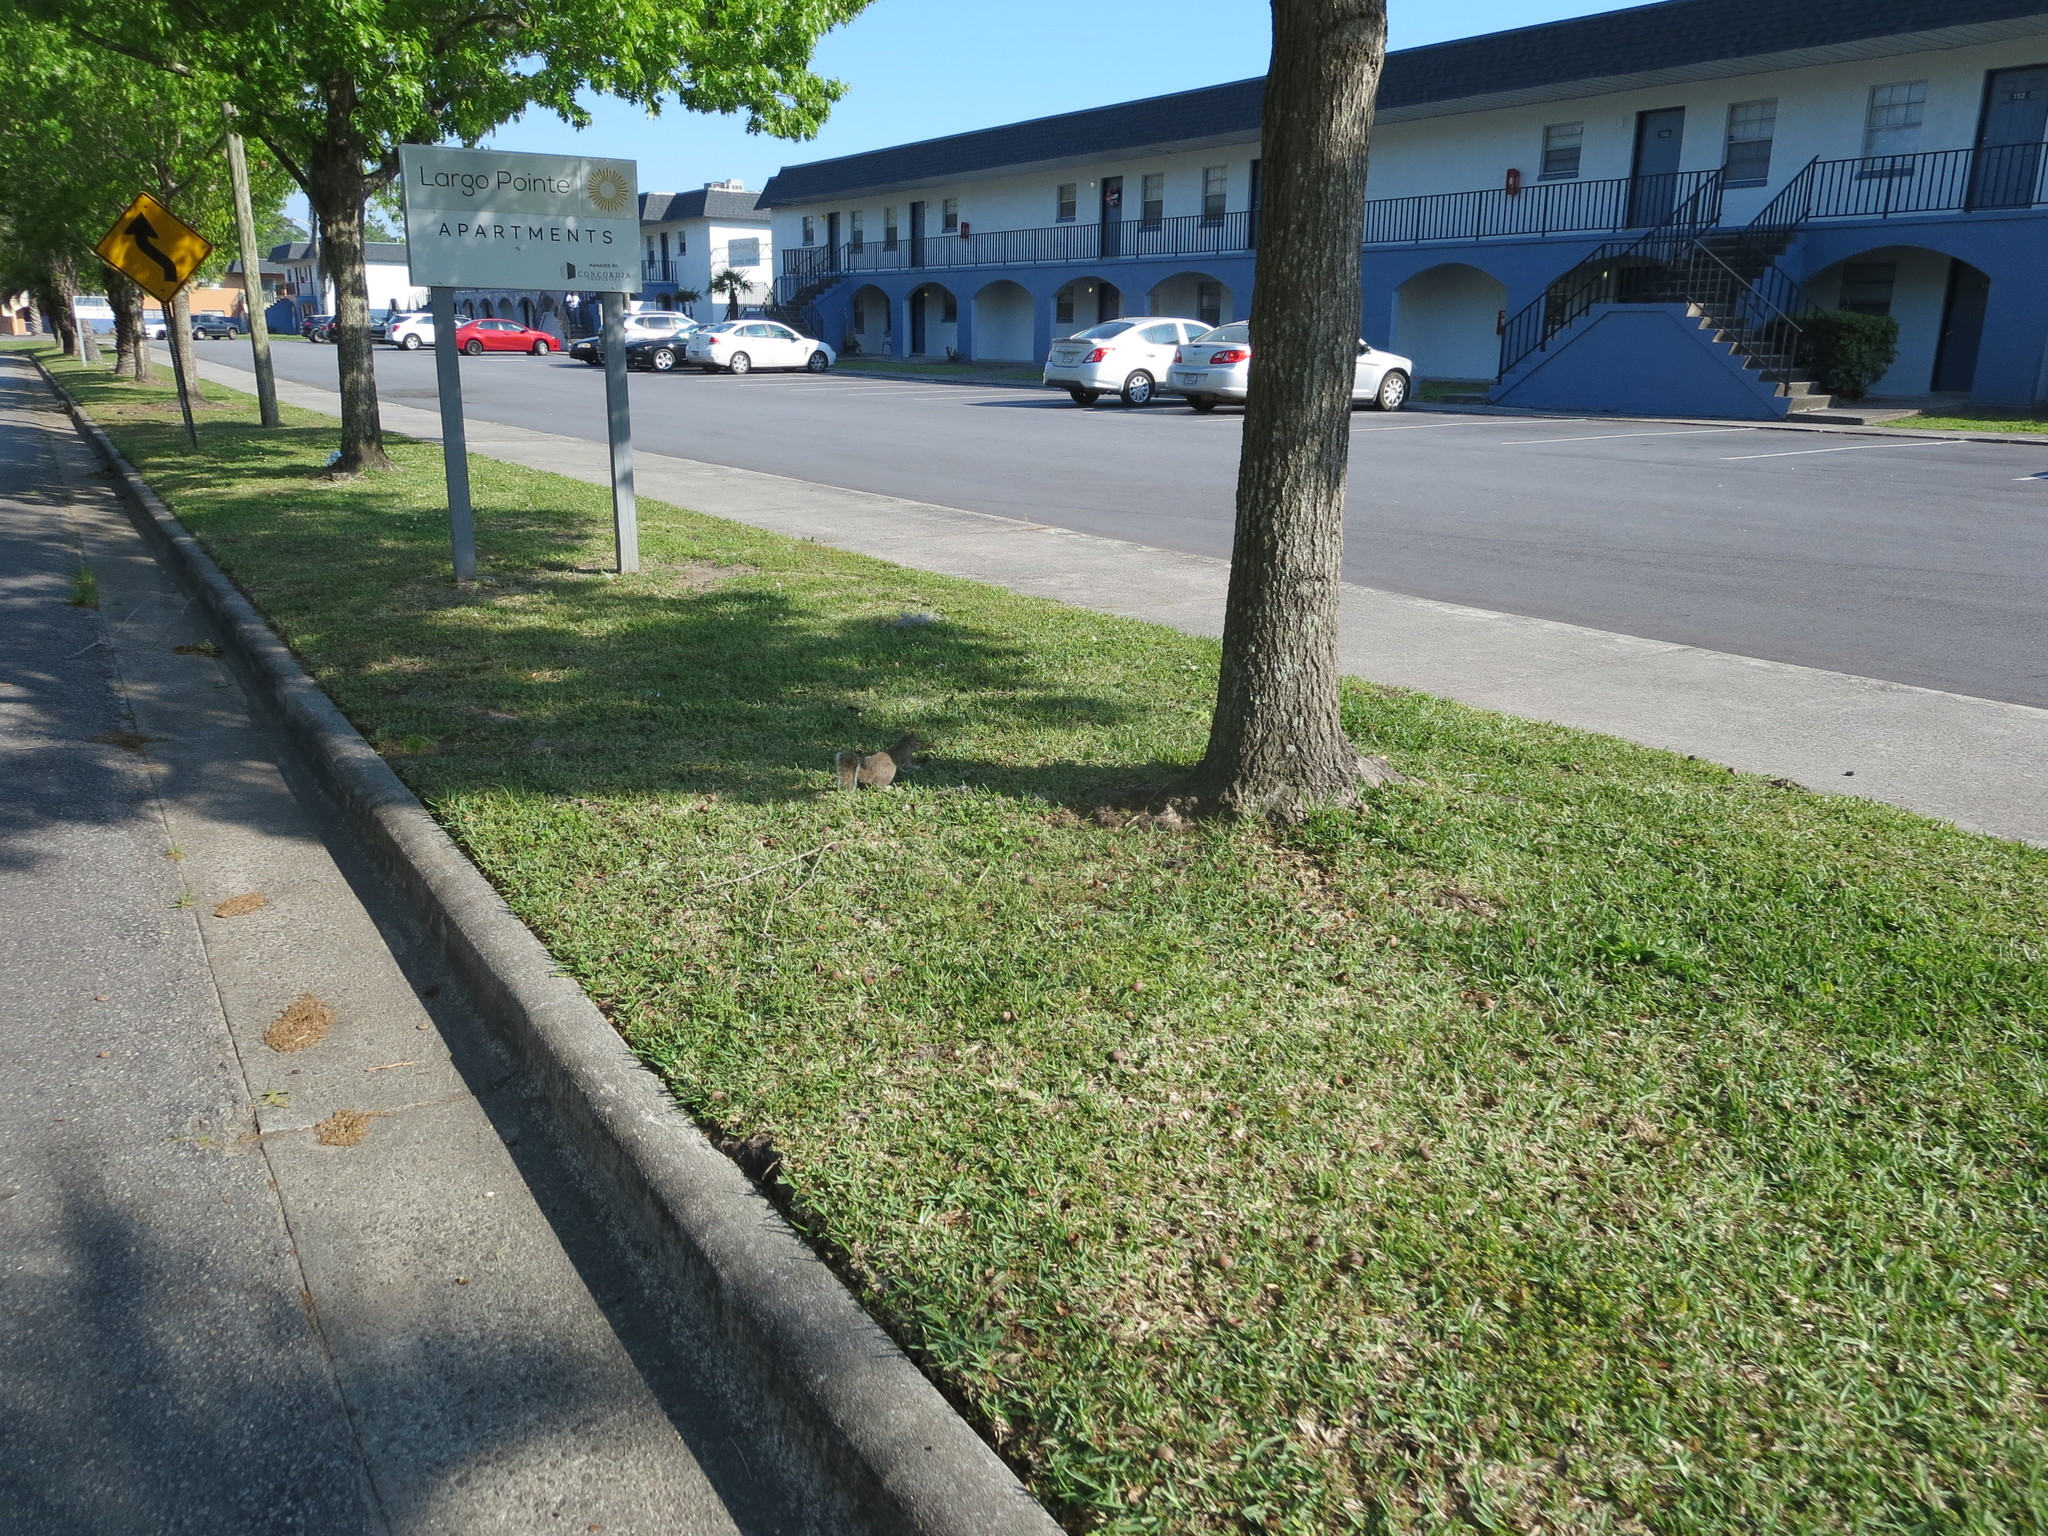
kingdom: Animalia
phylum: Chordata
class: Mammalia
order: Rodentia
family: Sciuridae
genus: Sciurus
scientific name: Sciurus carolinensis
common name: Eastern gray squirrel
